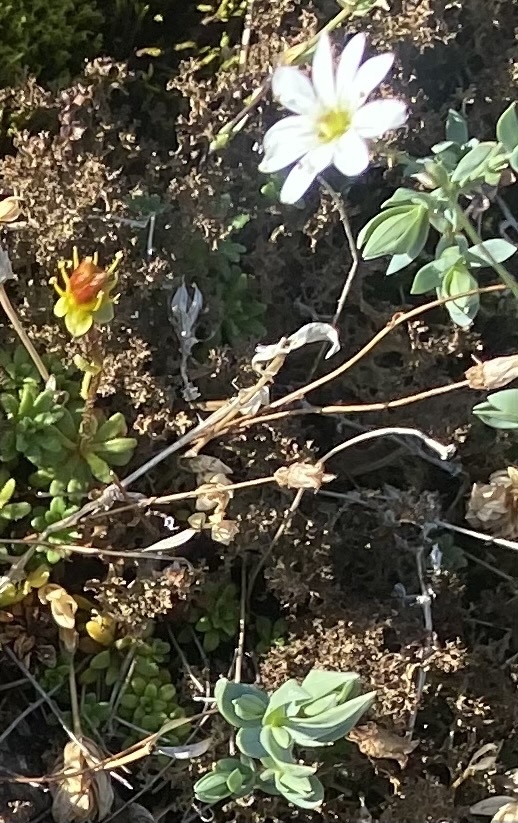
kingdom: Plantae
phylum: Tracheophyta
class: Magnoliopsida
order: Caryophyllales
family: Caryophyllaceae
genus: Stellaria
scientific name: Stellaria longipes
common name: Goldie's starwort
